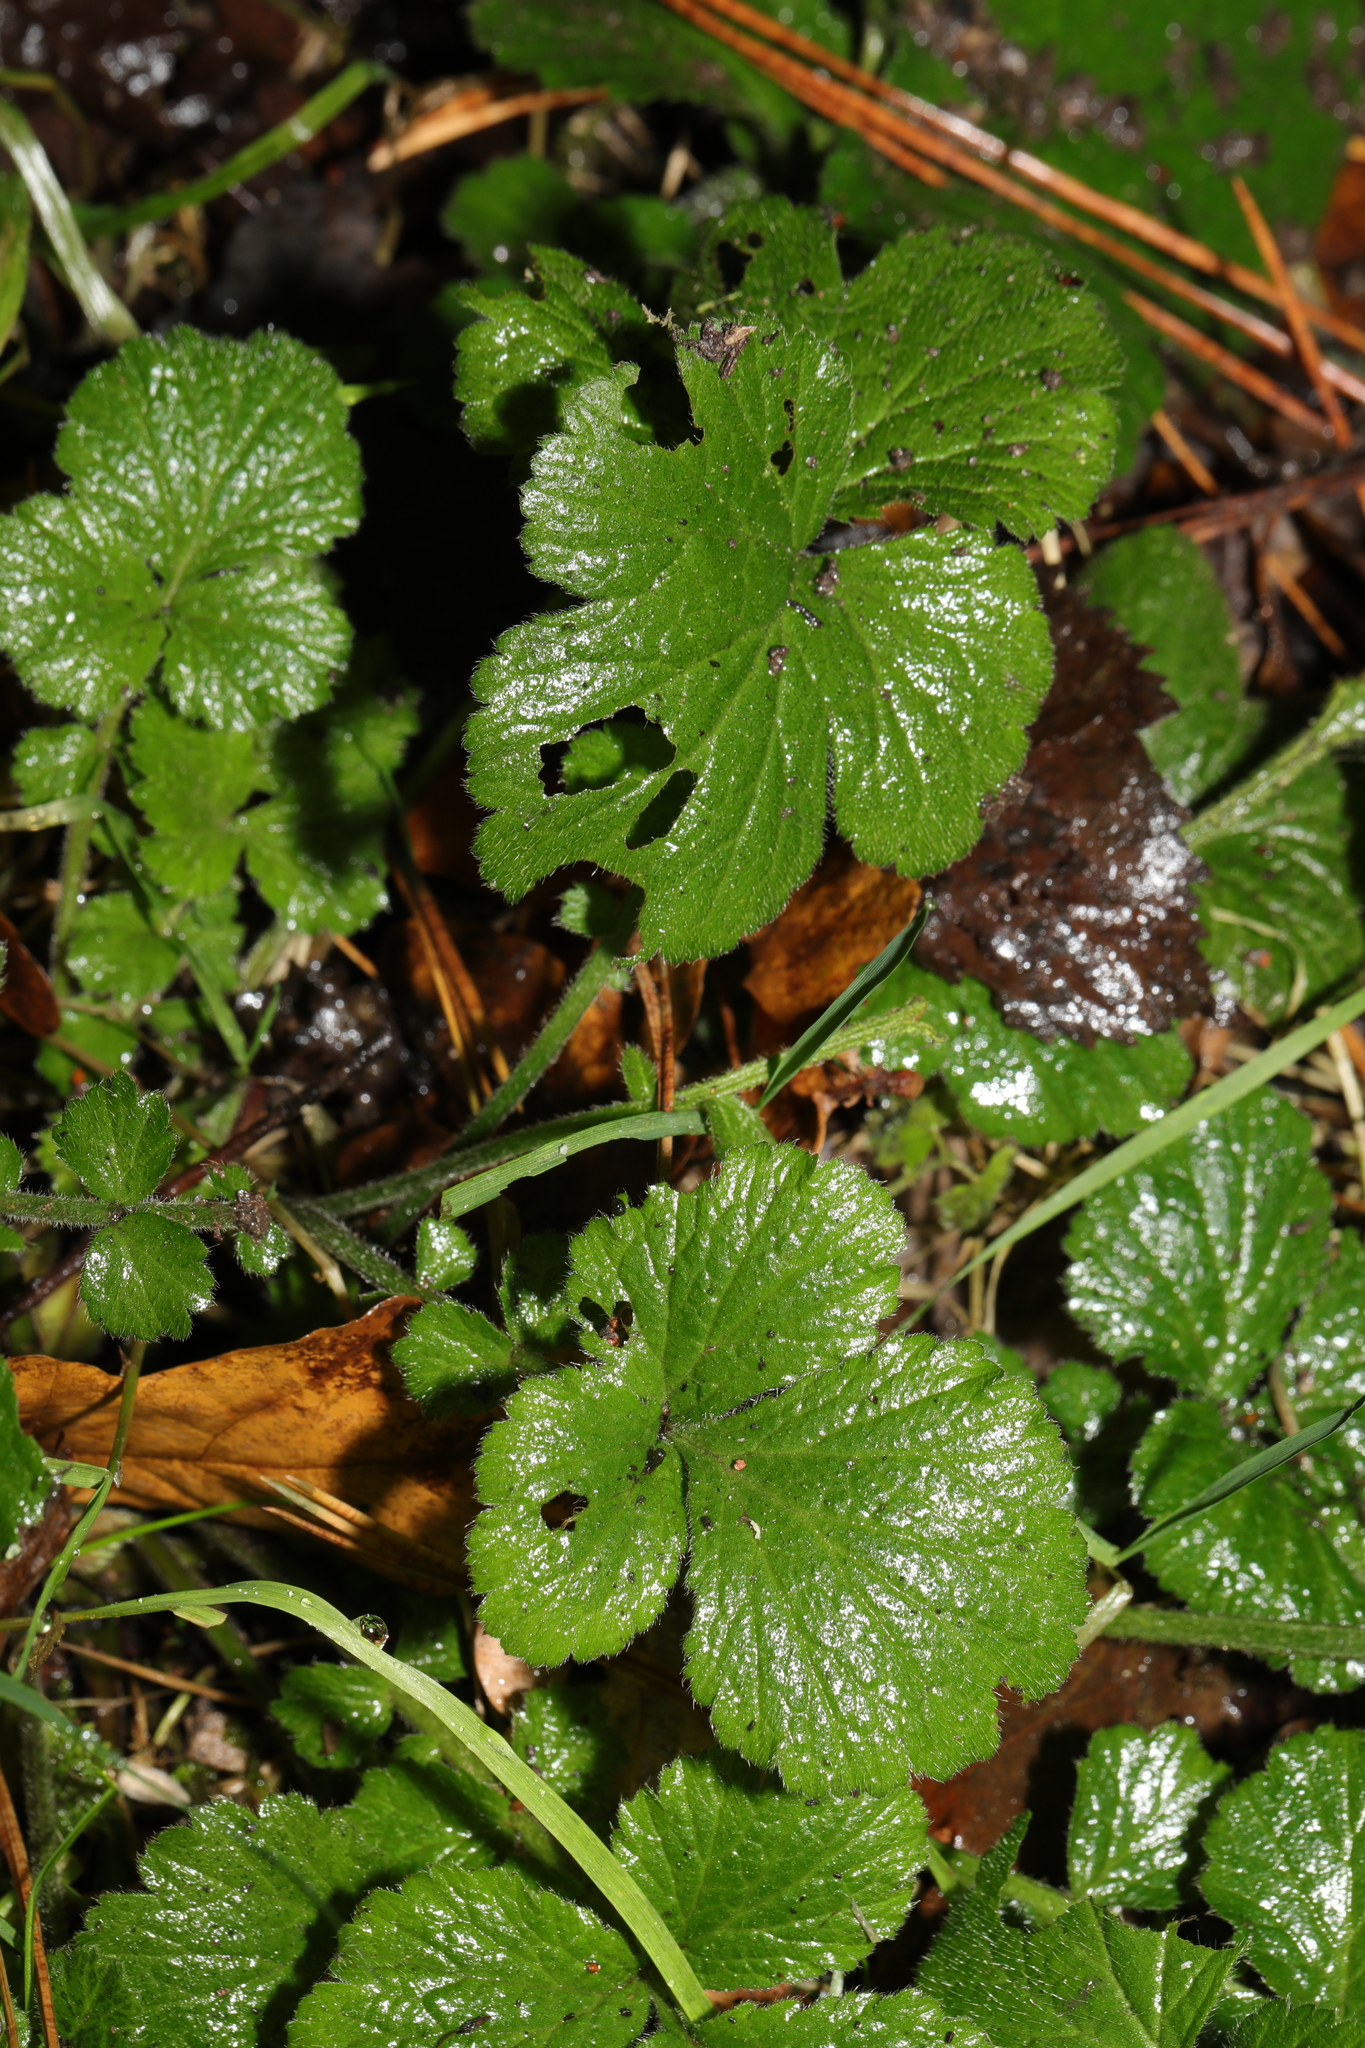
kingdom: Plantae
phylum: Tracheophyta
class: Magnoliopsida
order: Rosales
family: Rosaceae
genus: Geum
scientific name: Geum urbanum
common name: Wood avens
